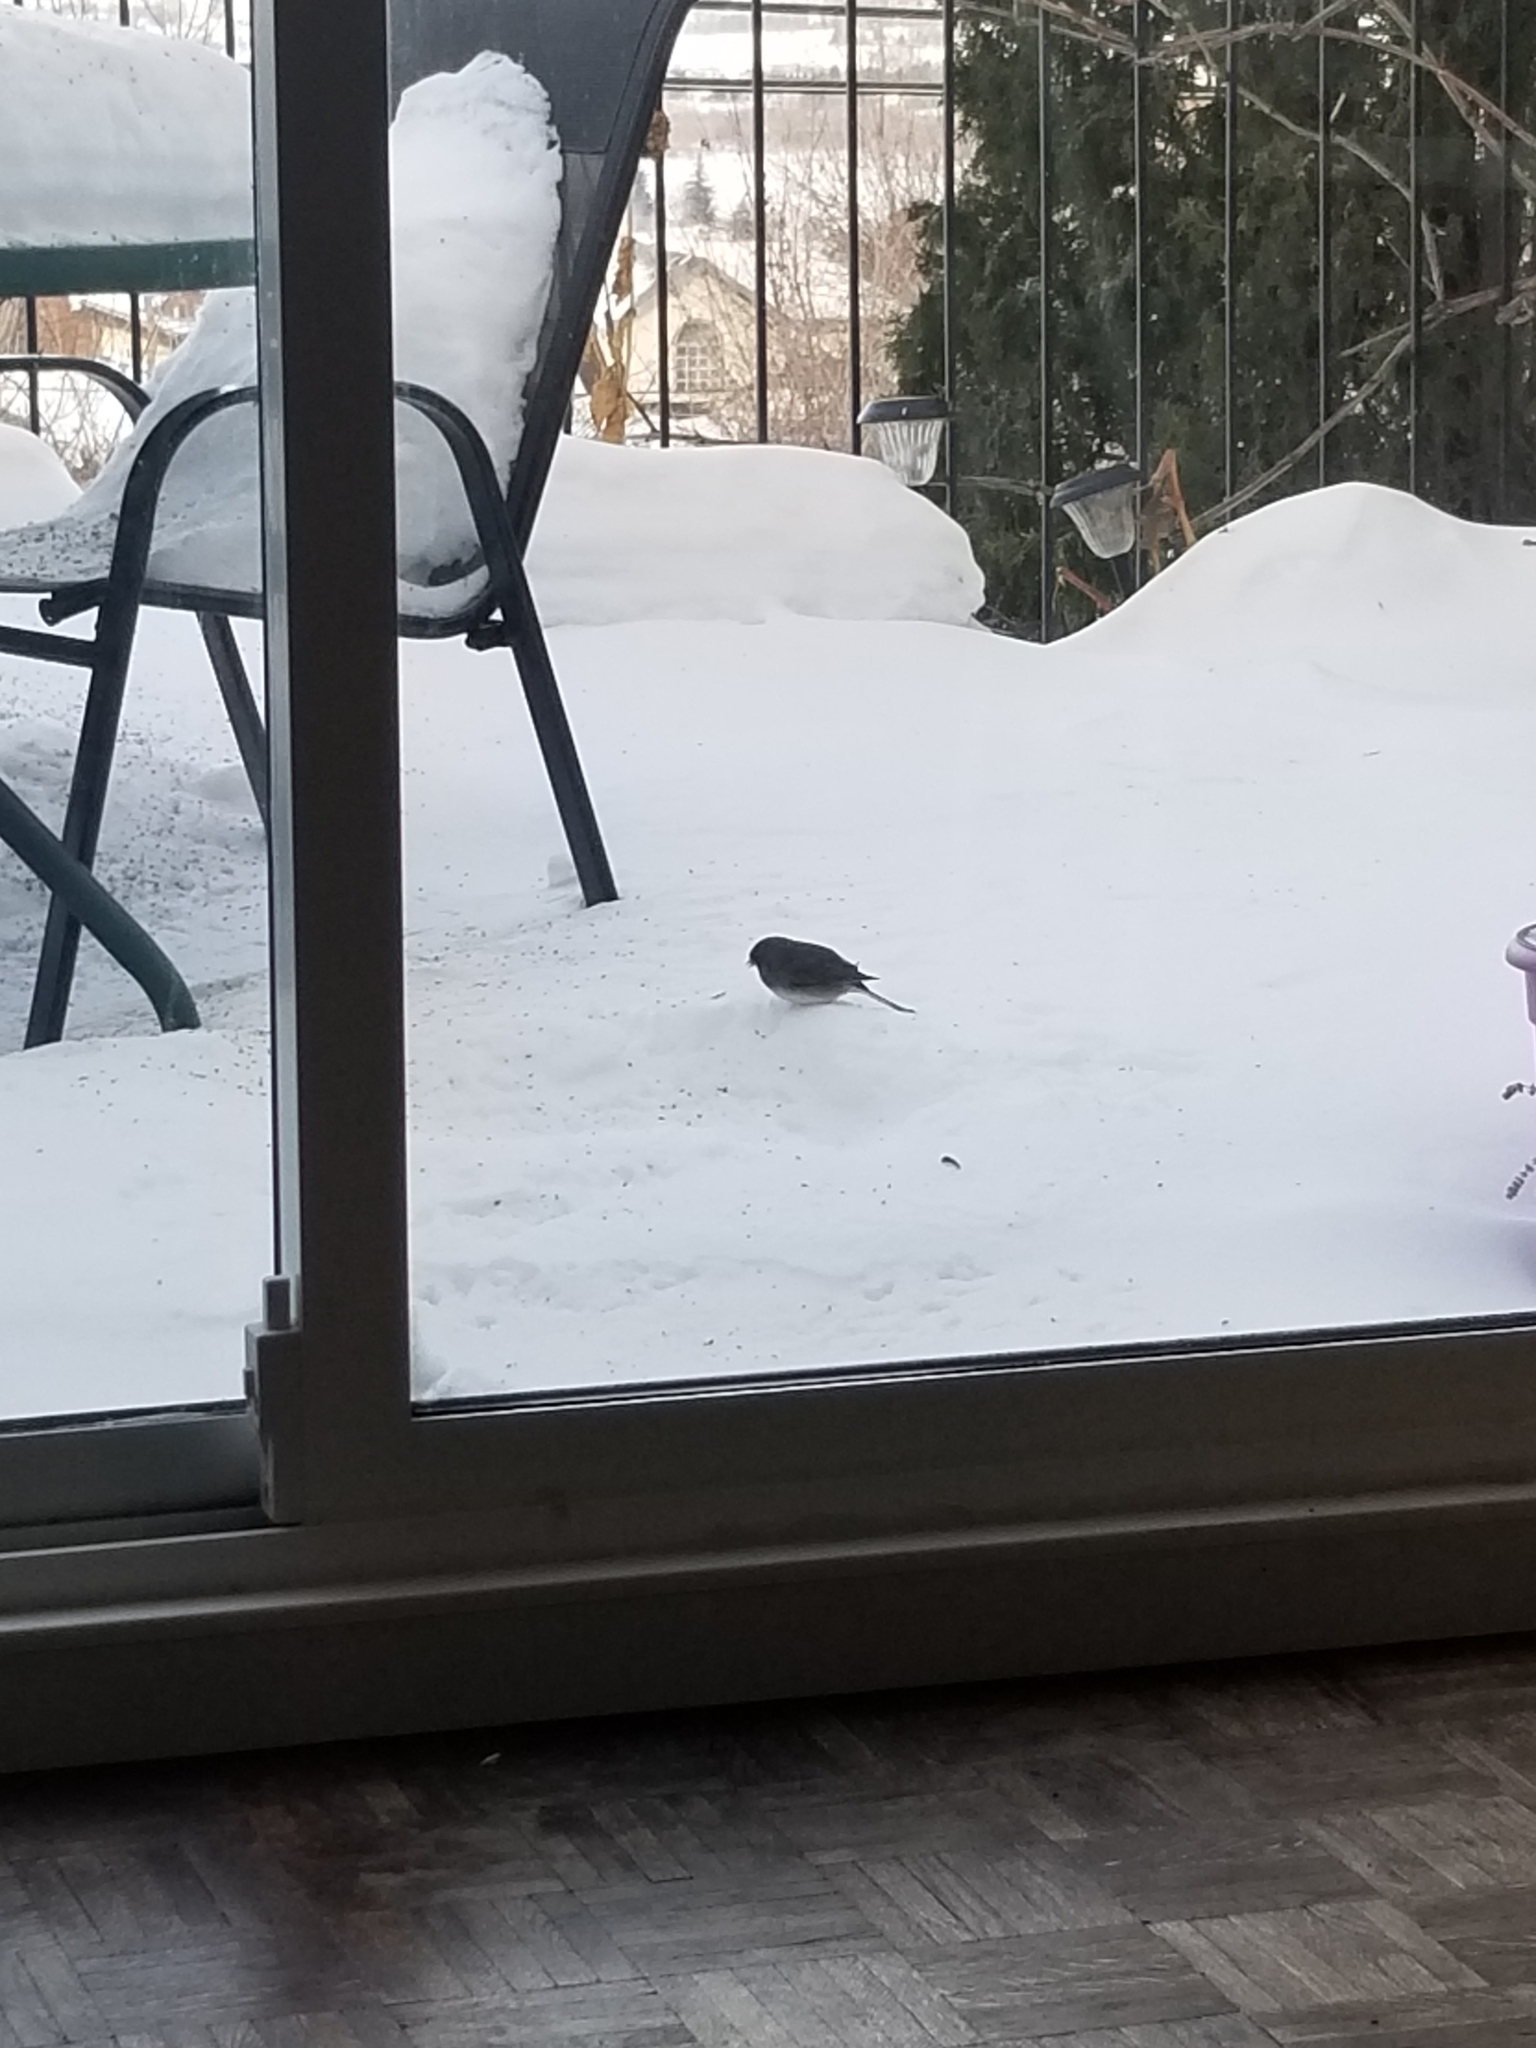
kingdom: Animalia
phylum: Chordata
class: Aves
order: Passeriformes
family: Passerellidae
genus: Junco
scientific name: Junco hyemalis
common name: Dark-eyed junco
